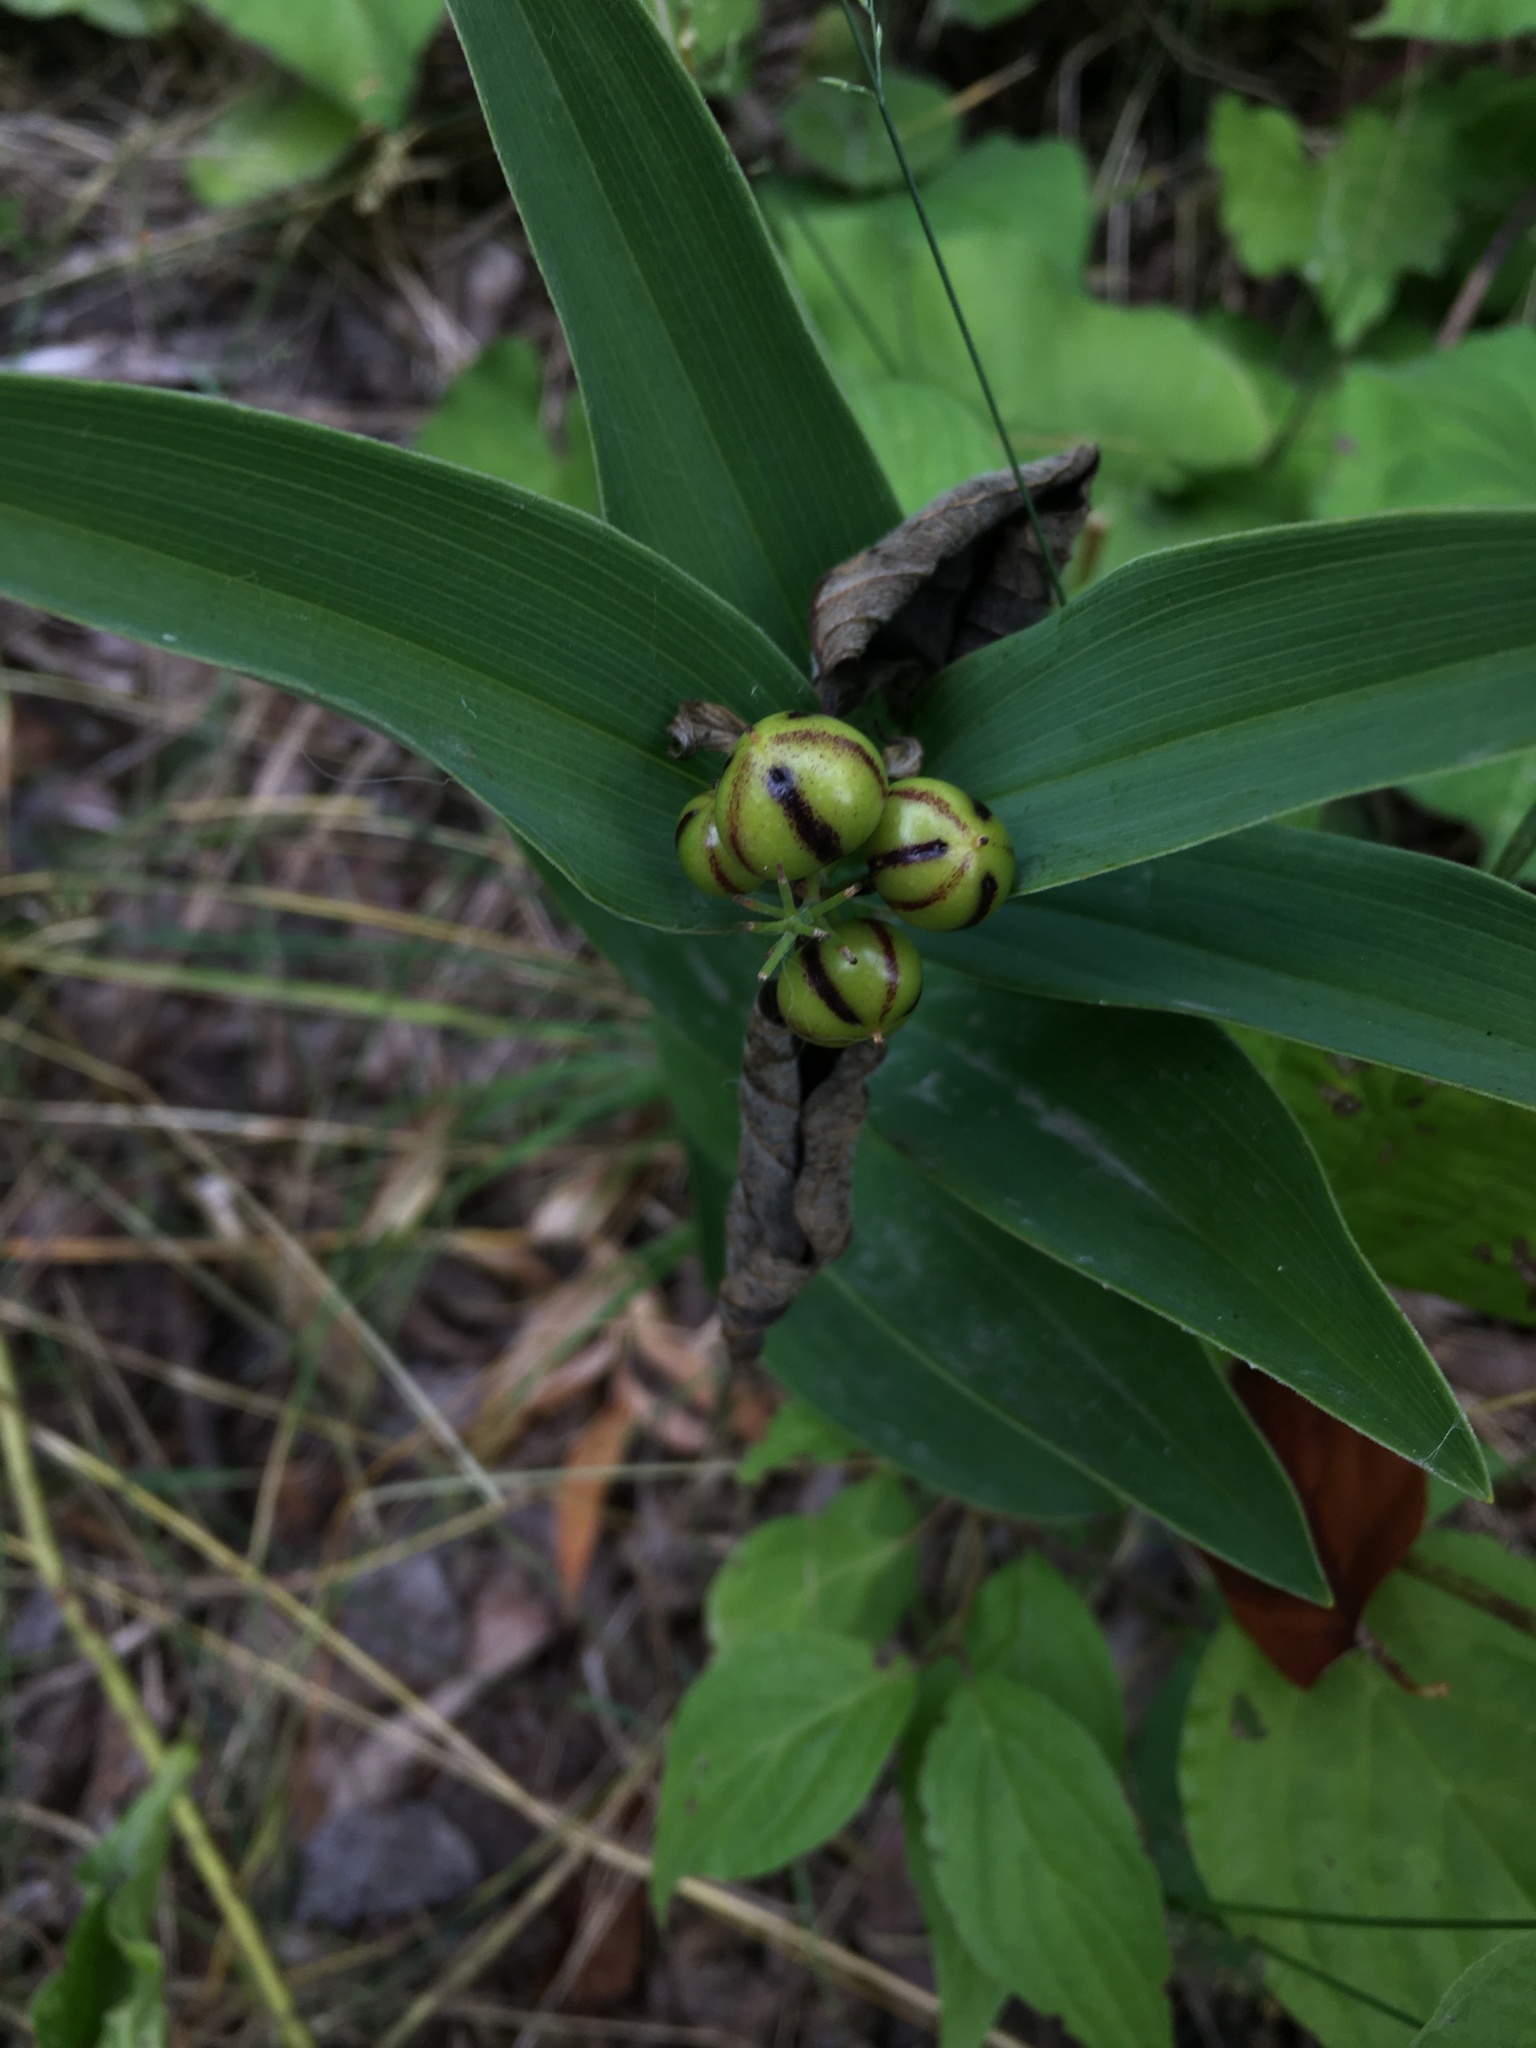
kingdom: Plantae
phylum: Tracheophyta
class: Liliopsida
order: Asparagales
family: Asparagaceae
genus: Maianthemum
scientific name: Maianthemum stellatum
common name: Little false solomon's seal
